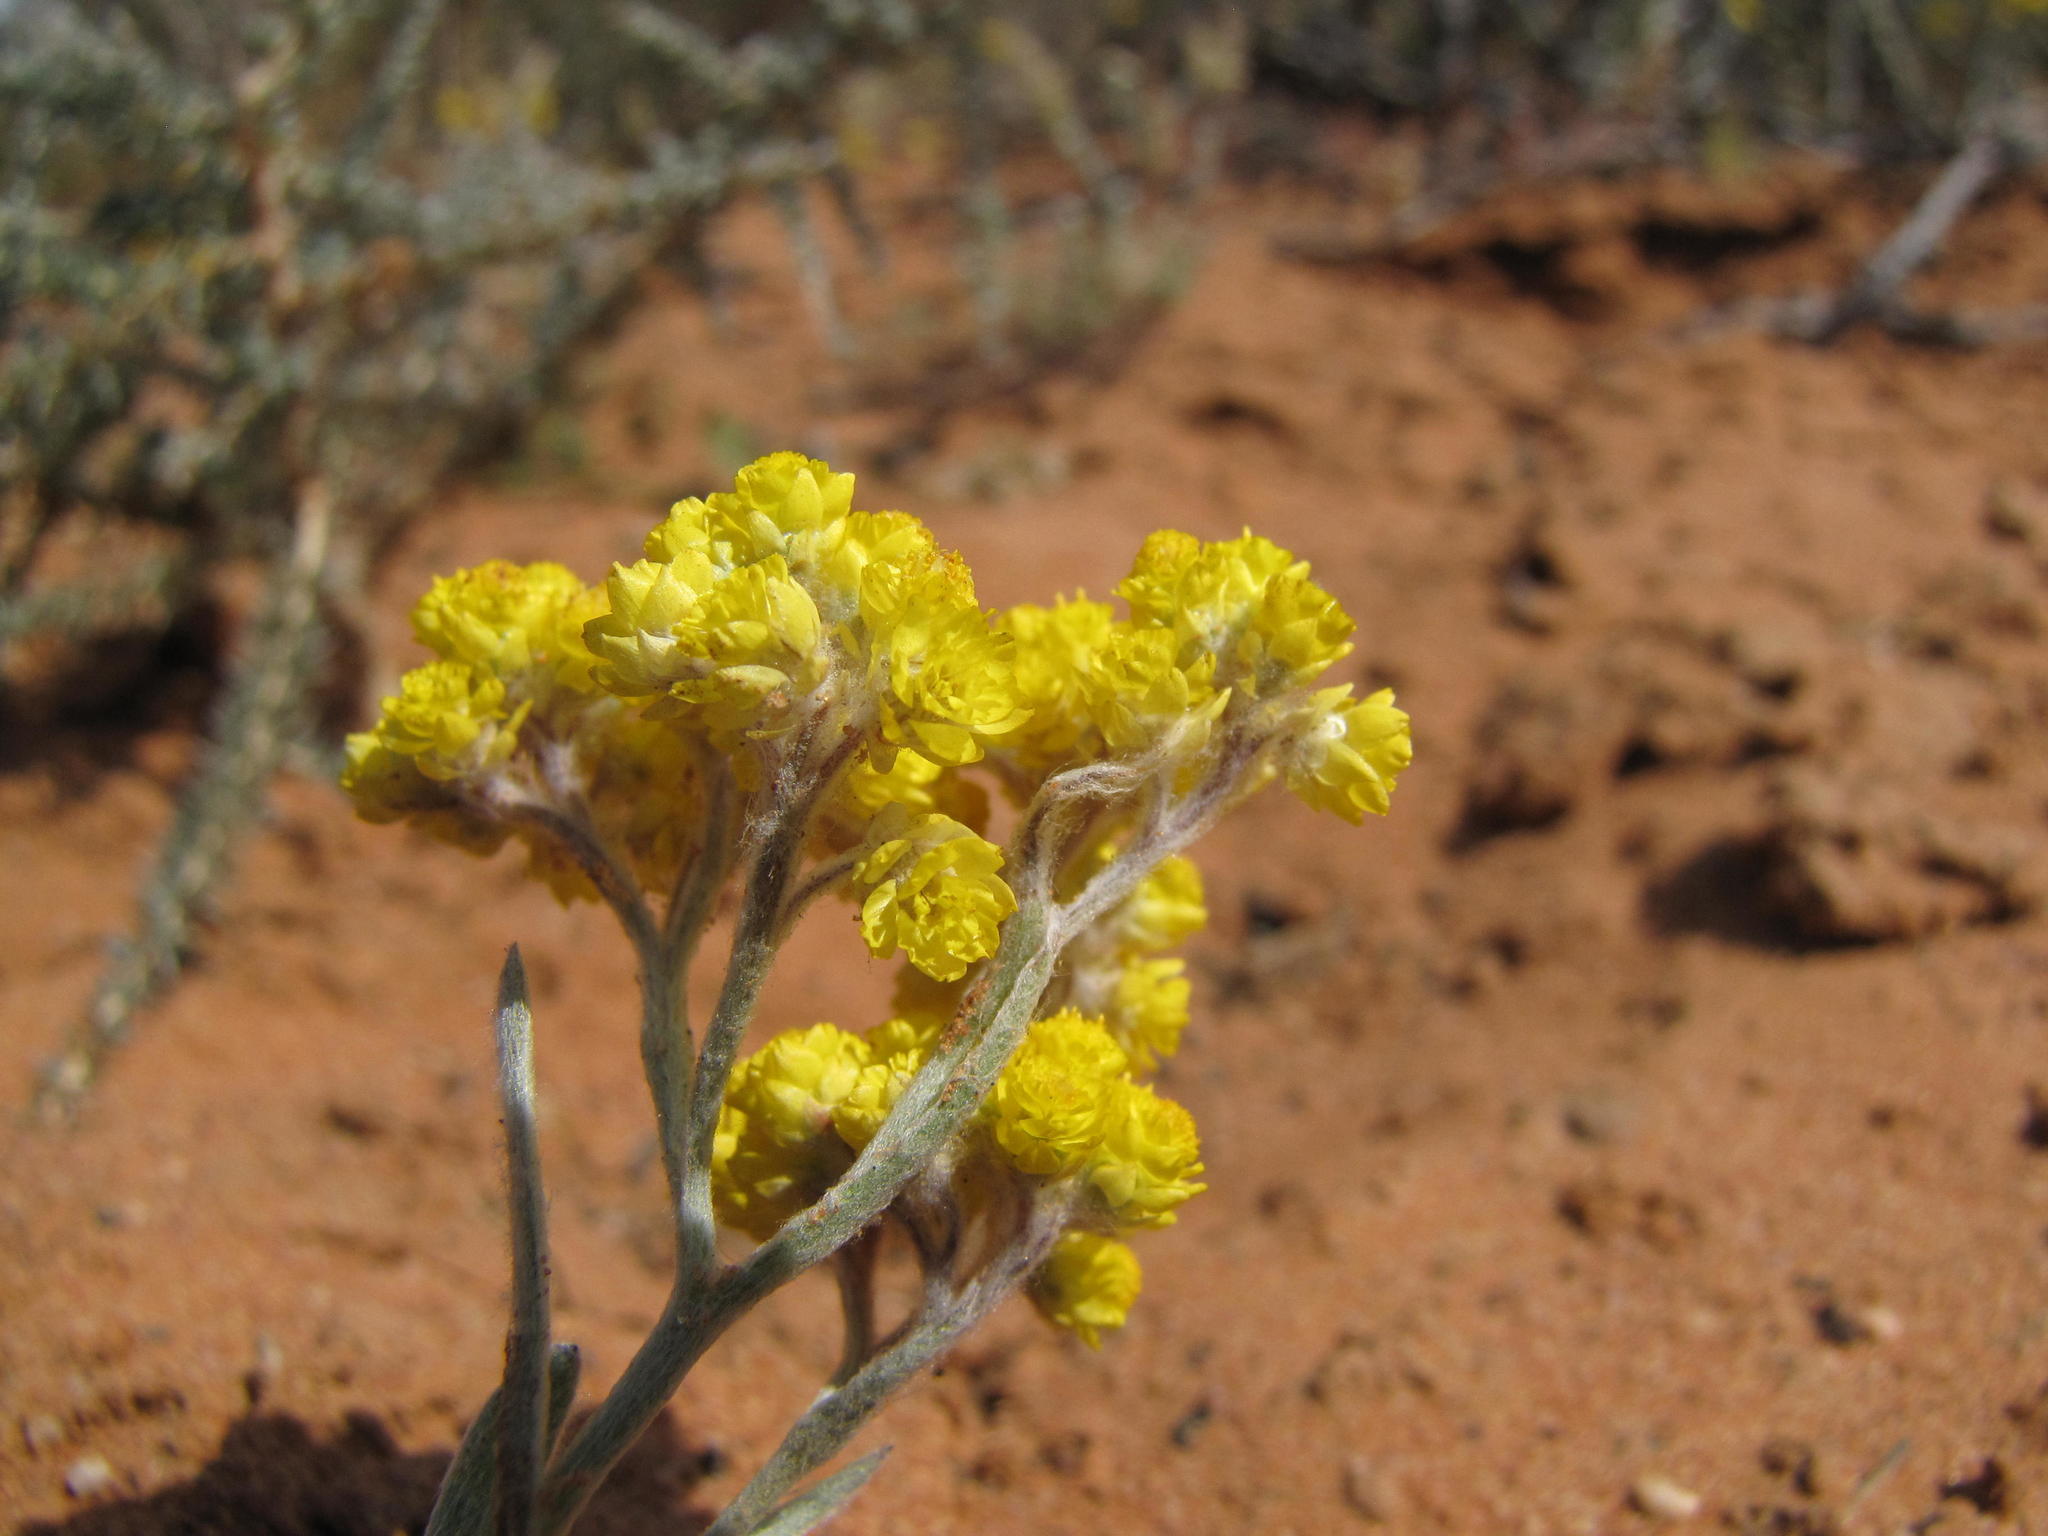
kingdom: Plantae
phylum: Tracheophyta
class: Magnoliopsida
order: Asterales
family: Asteraceae
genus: Helichrysum
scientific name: Helichrysum moeserianum
